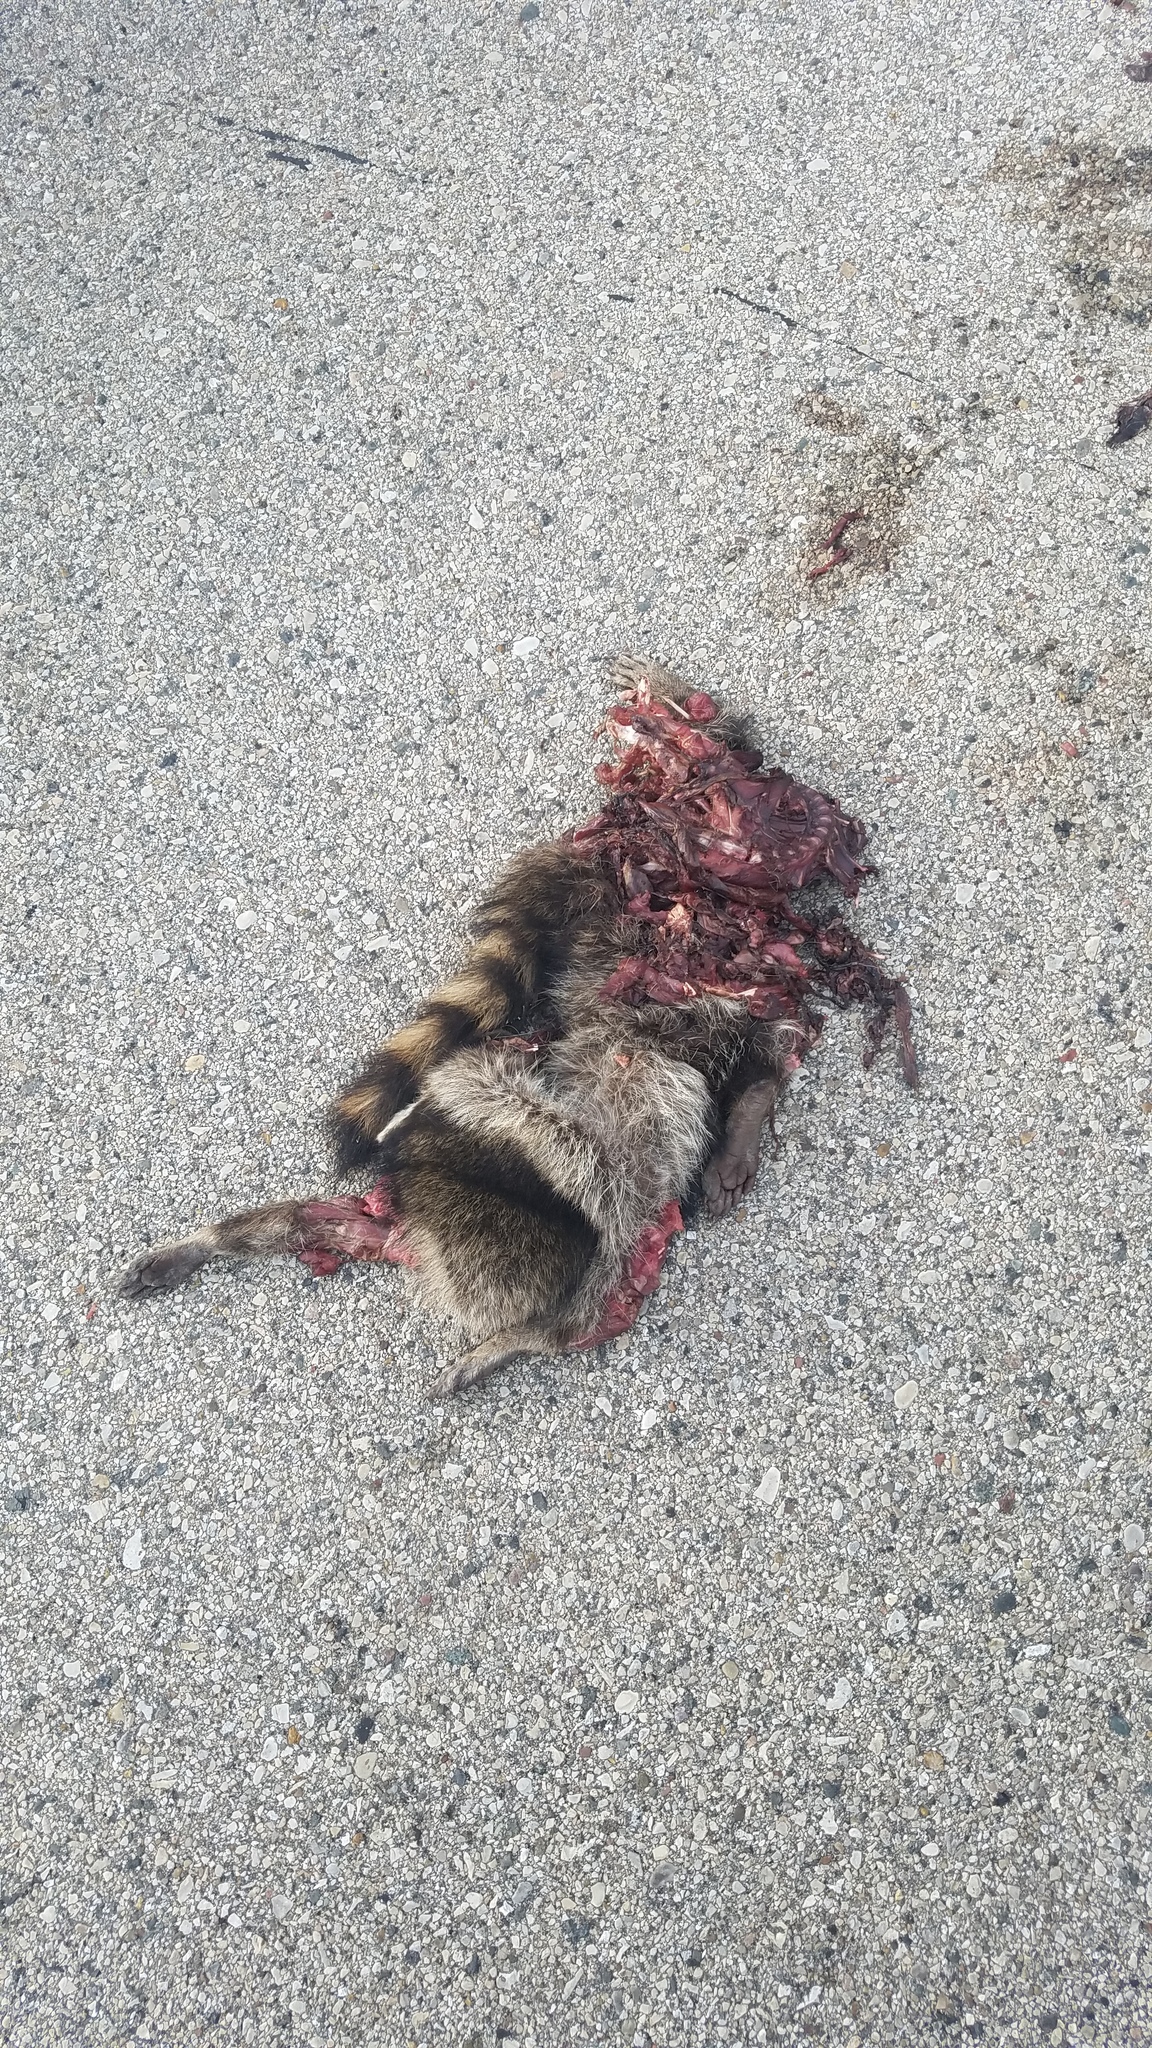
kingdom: Animalia
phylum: Chordata
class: Mammalia
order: Carnivora
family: Procyonidae
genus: Procyon
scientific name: Procyon lotor
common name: Raccoon
